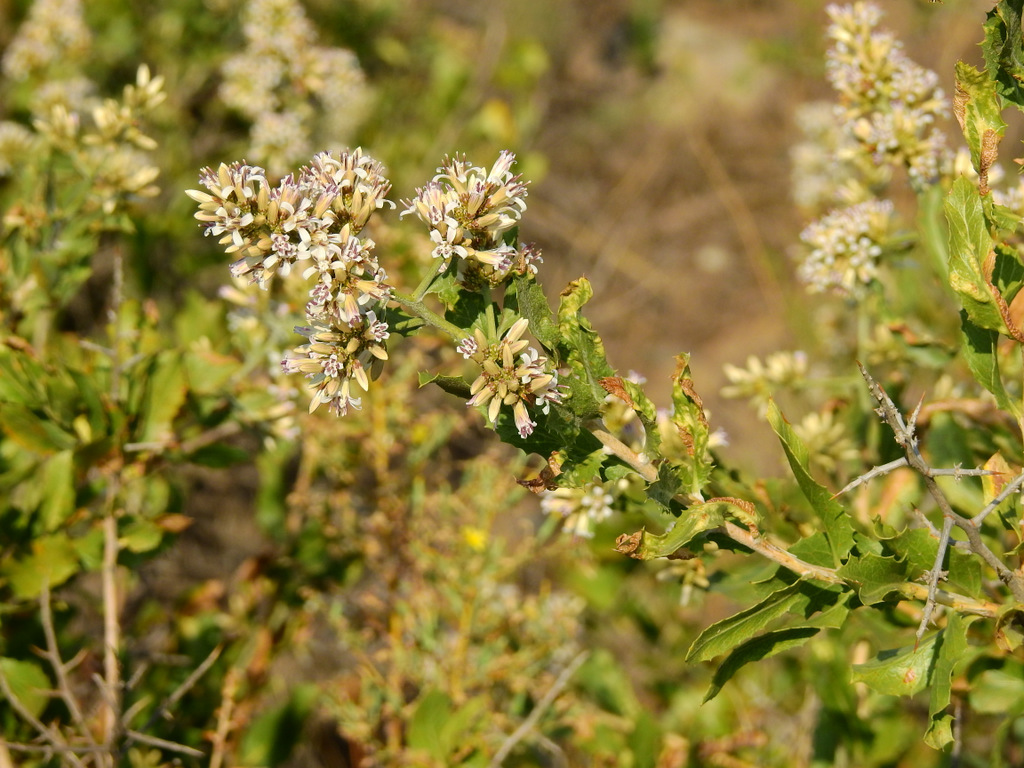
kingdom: Plantae
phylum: Tracheophyta
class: Magnoliopsida
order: Asterales
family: Asteraceae
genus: Proustia
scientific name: Proustia cuneifolia
